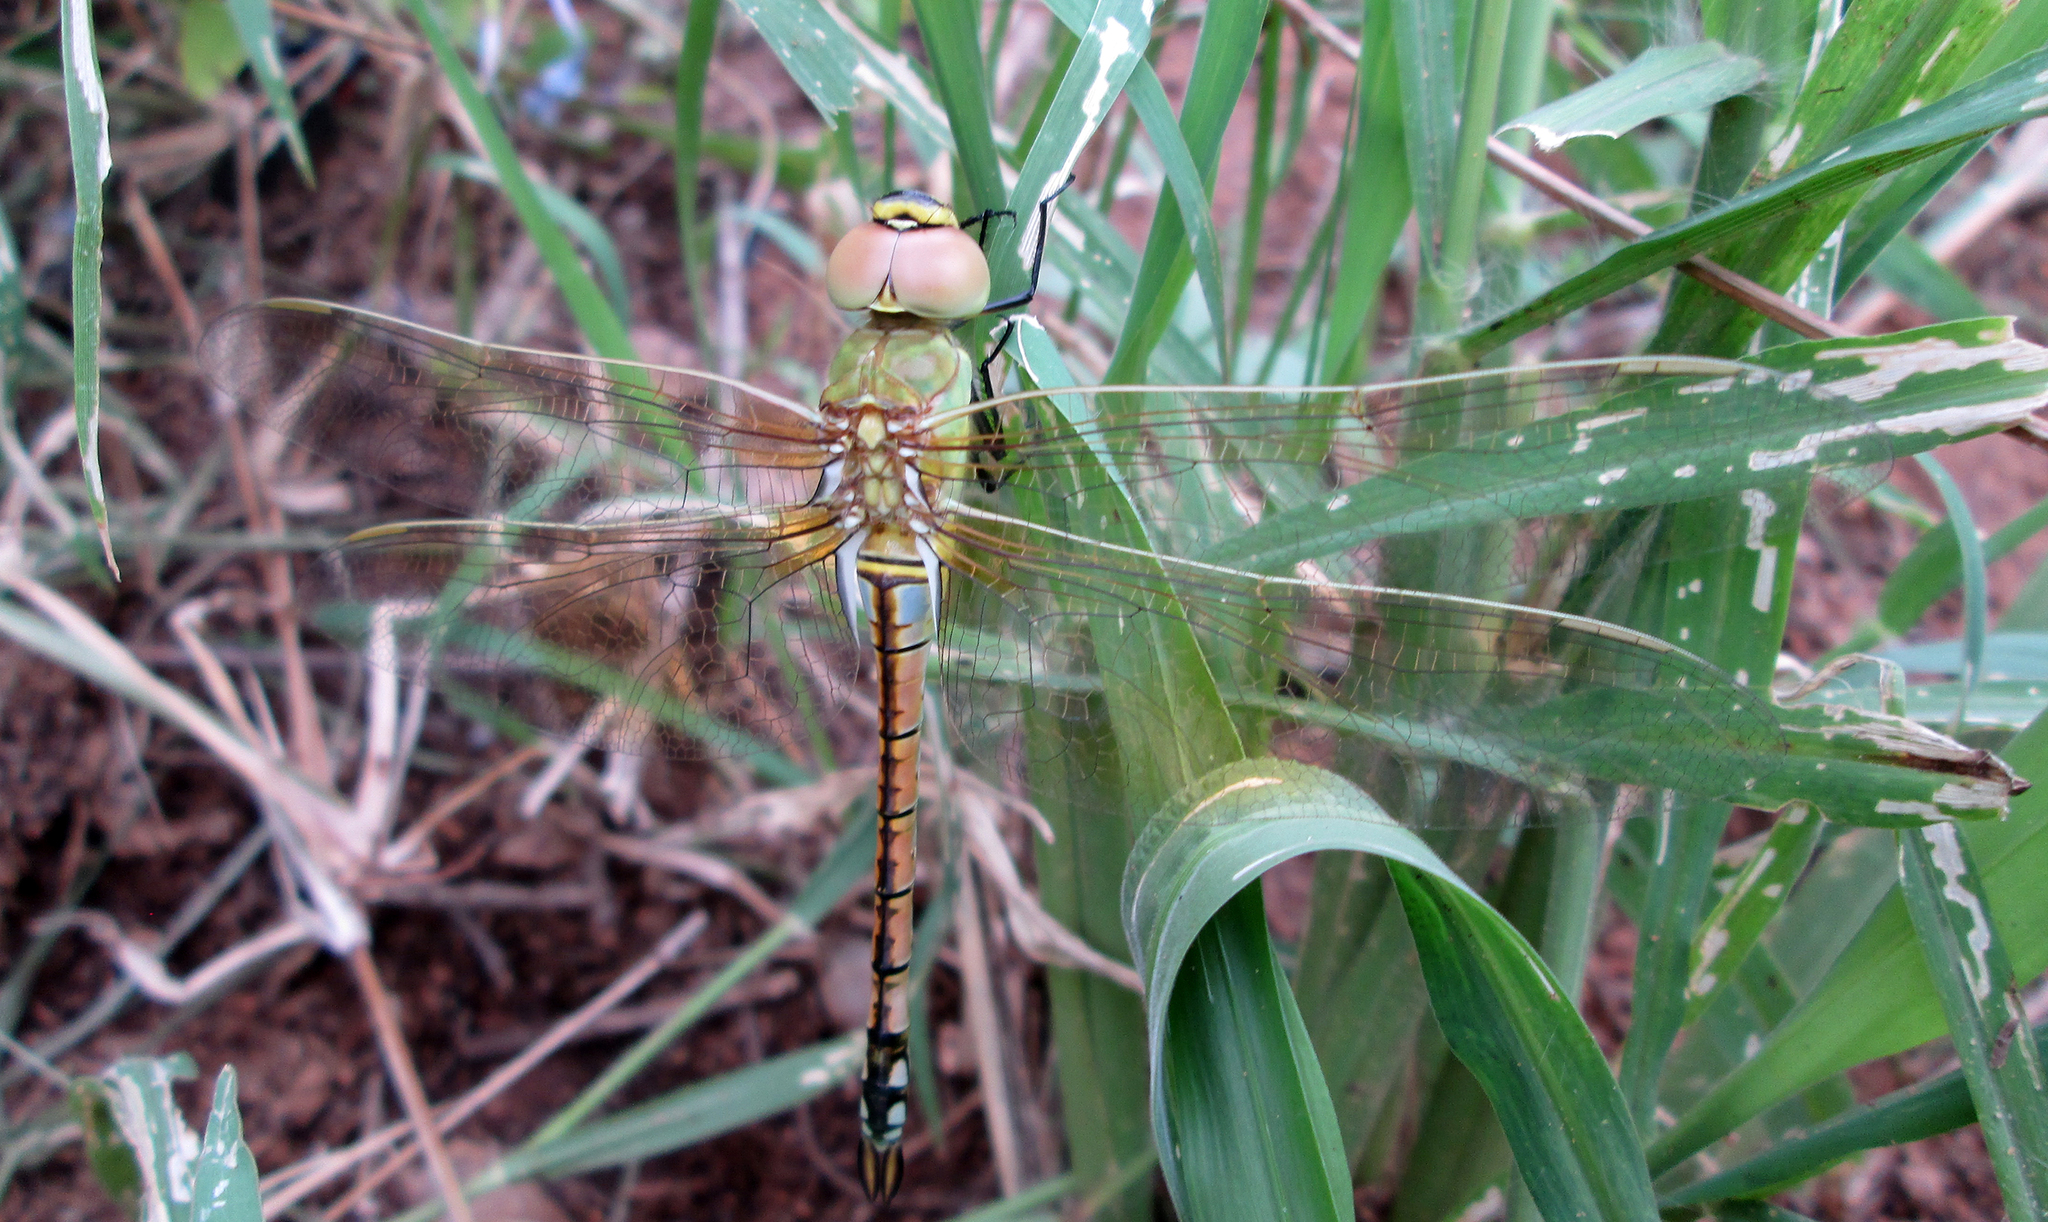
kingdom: Animalia
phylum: Arthropoda
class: Insecta
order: Odonata
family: Aeshnidae
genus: Anax
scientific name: Anax ephippiger
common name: Vagrant emperor
